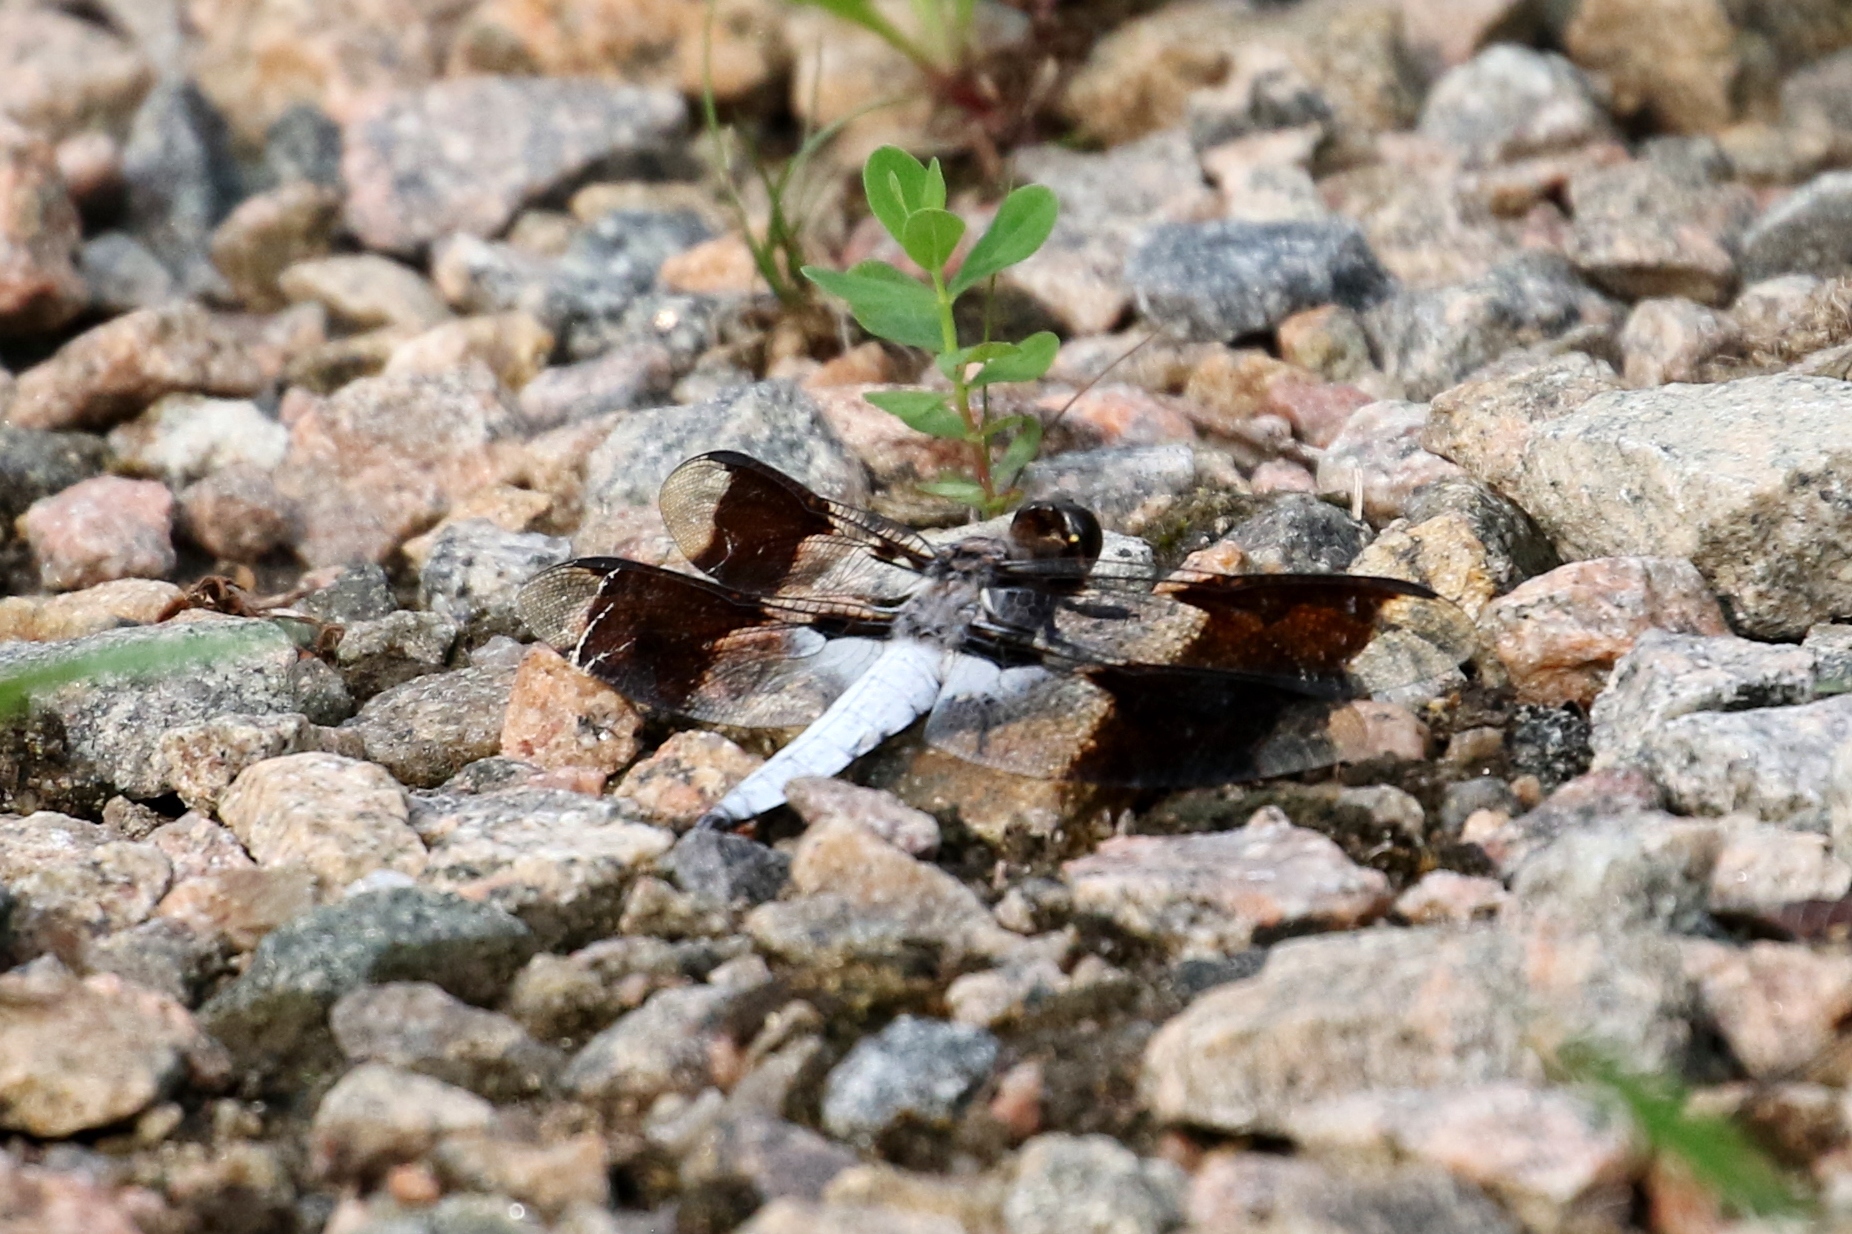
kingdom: Animalia
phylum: Arthropoda
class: Insecta
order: Odonata
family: Libellulidae
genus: Plathemis
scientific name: Plathemis lydia
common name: Common whitetail
